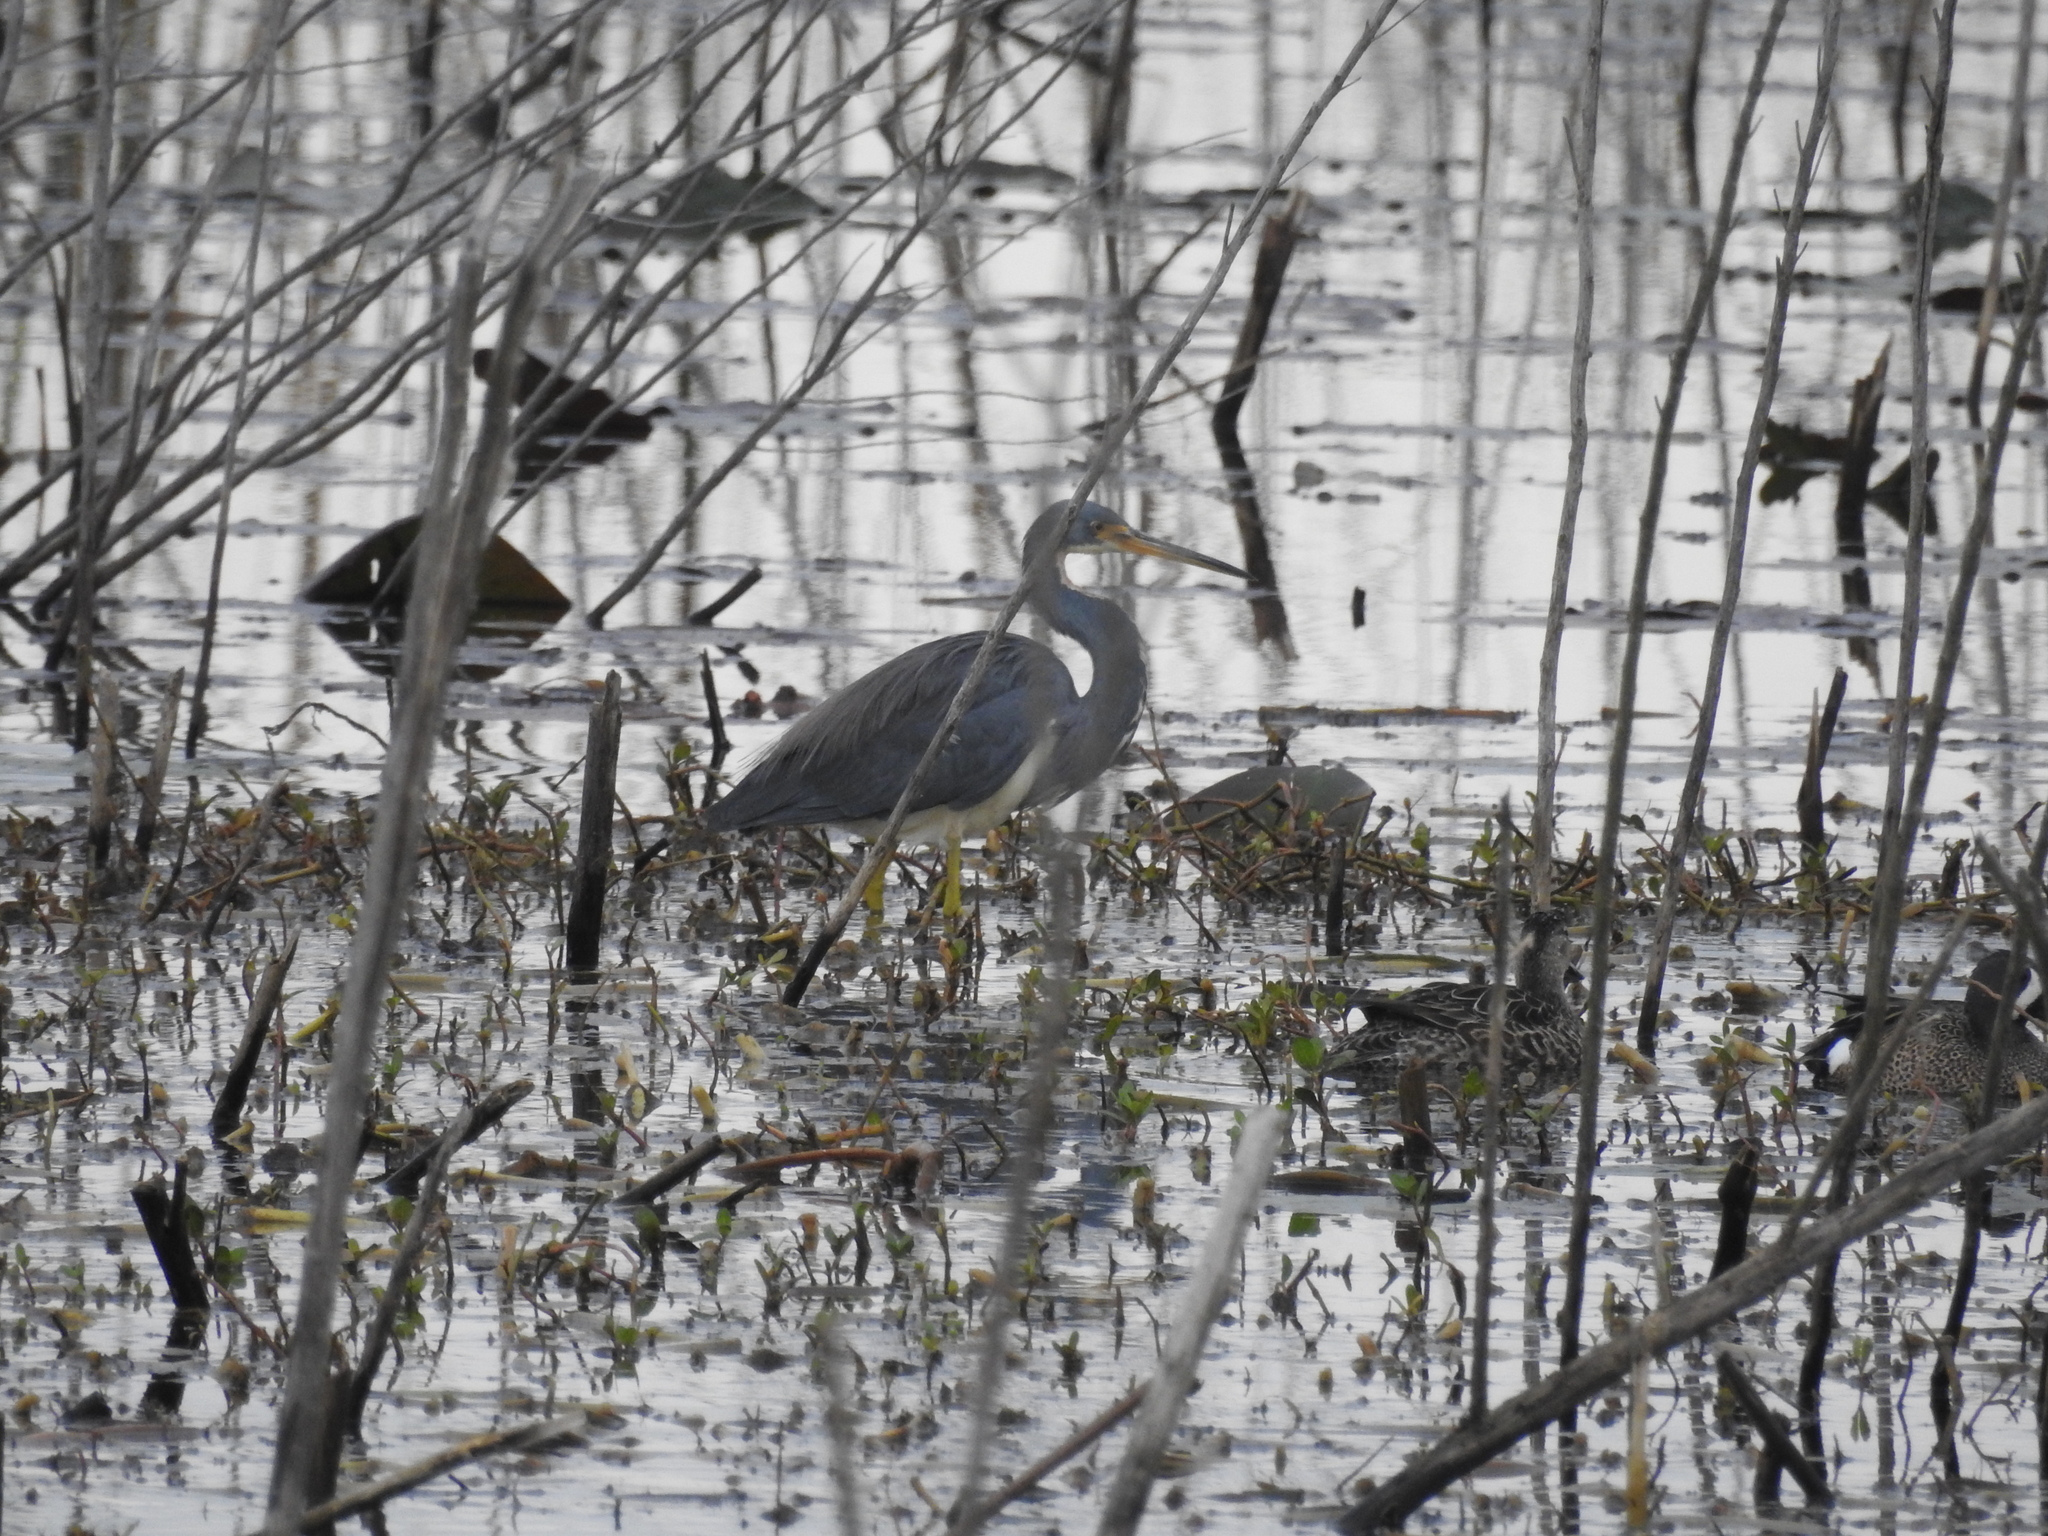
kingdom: Animalia
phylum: Chordata
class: Aves
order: Pelecaniformes
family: Ardeidae
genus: Egretta
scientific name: Egretta tricolor
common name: Tricolored heron
